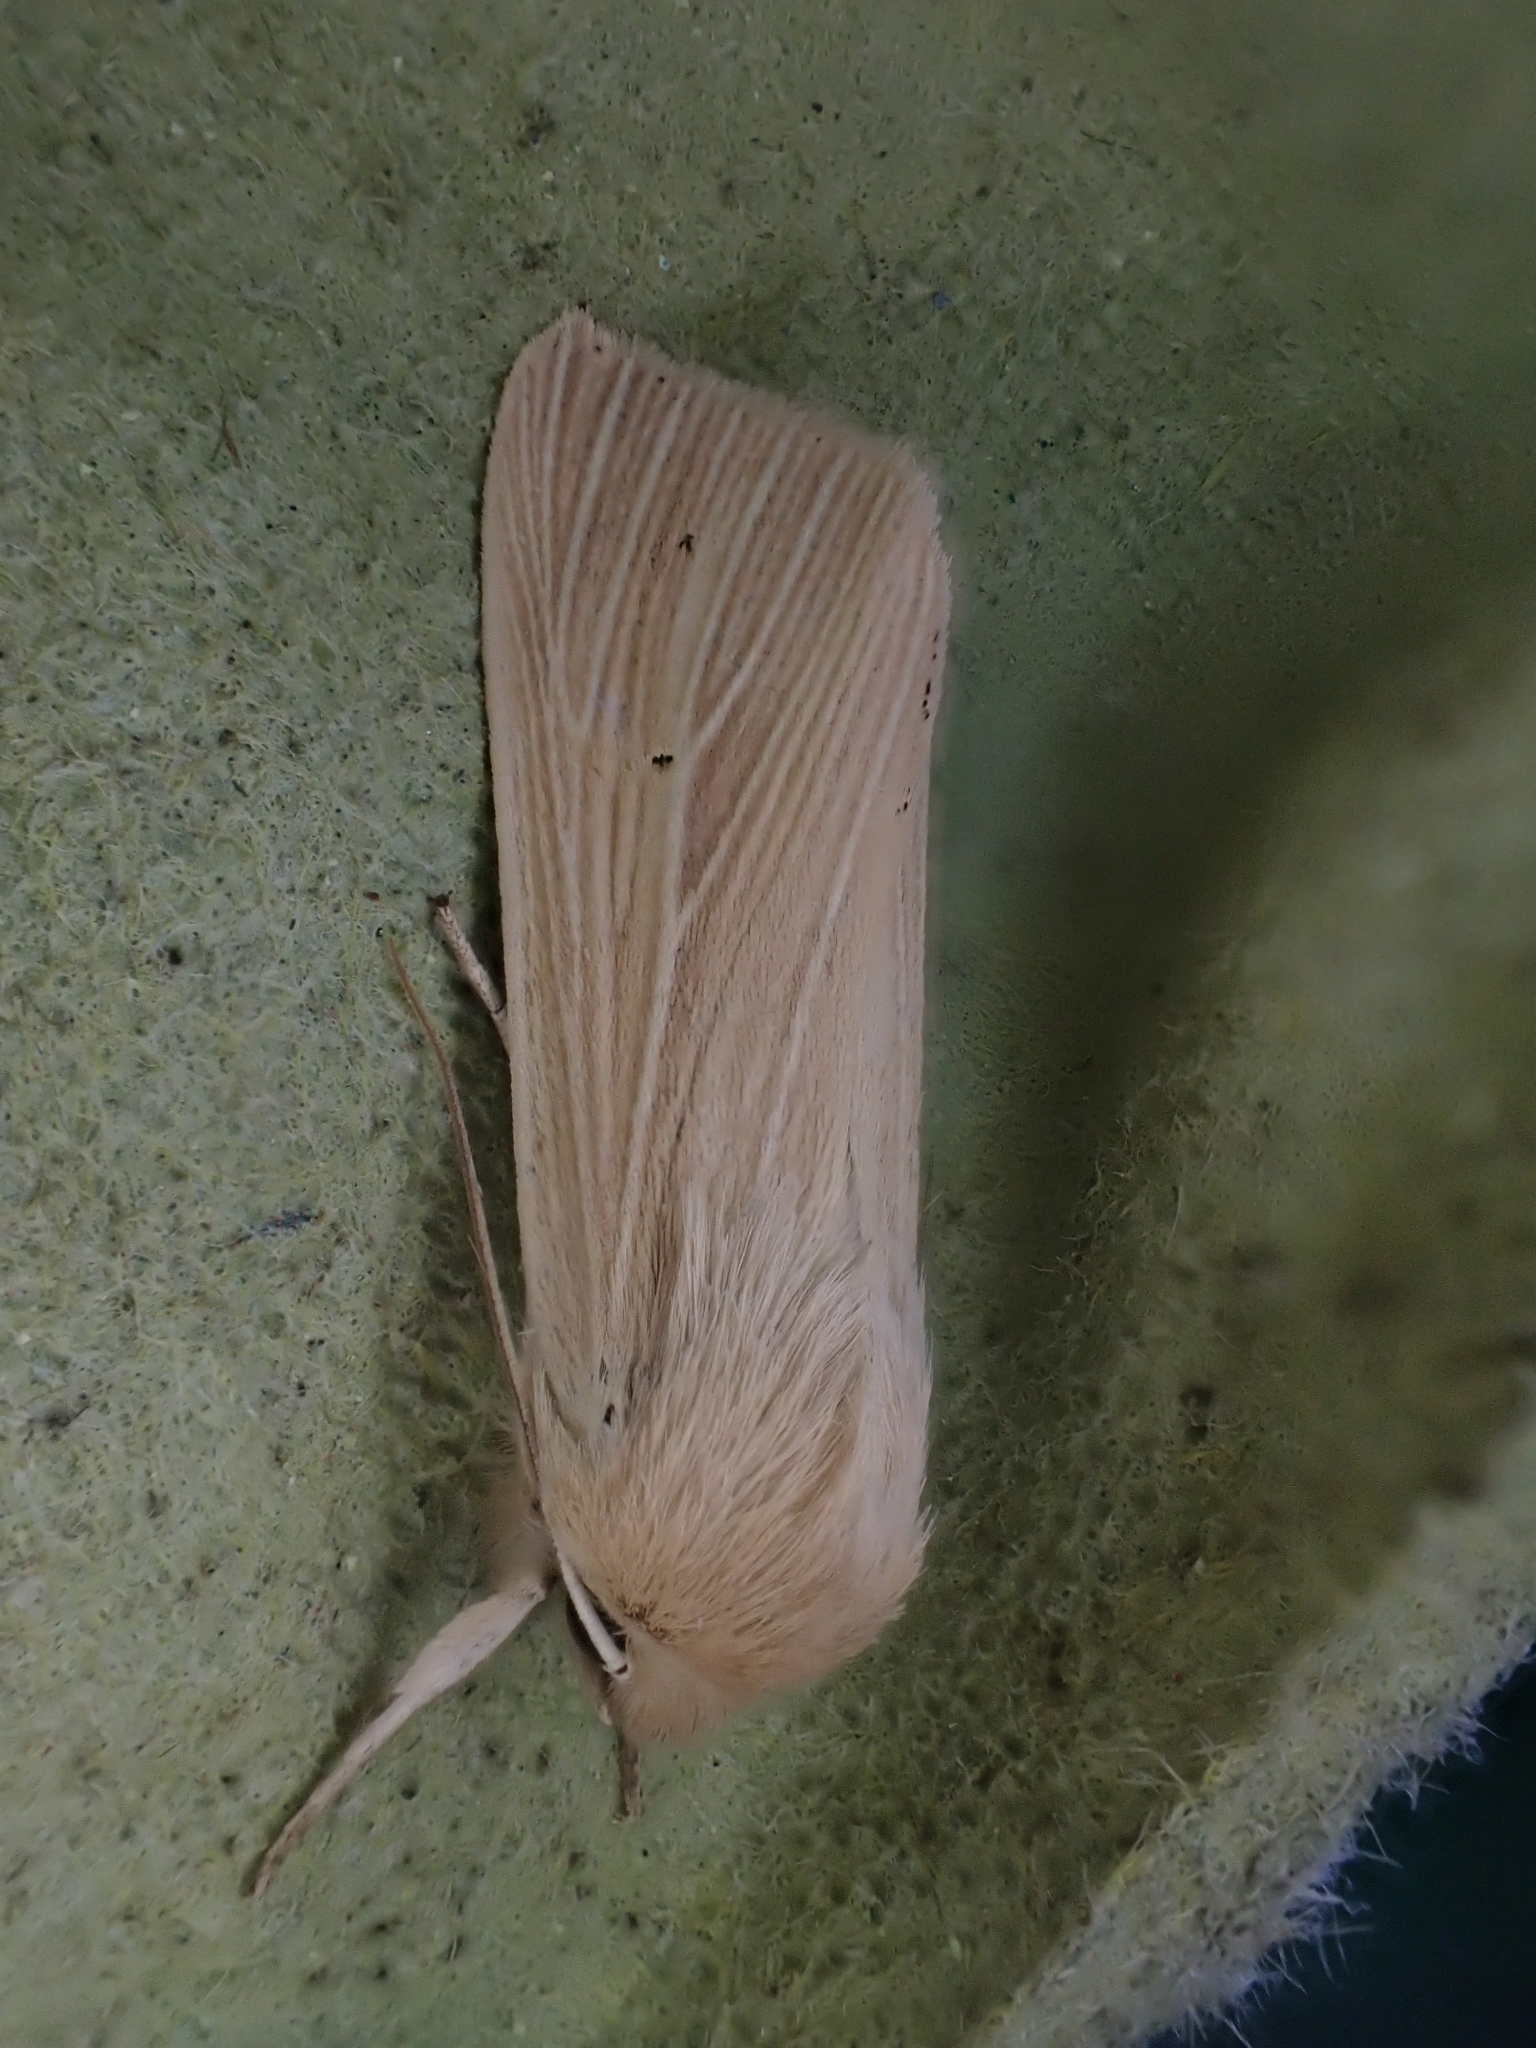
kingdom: Animalia
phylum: Arthropoda
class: Insecta
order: Lepidoptera
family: Noctuidae
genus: Mythimna
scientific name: Mythimna pallens
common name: Common wainscot
